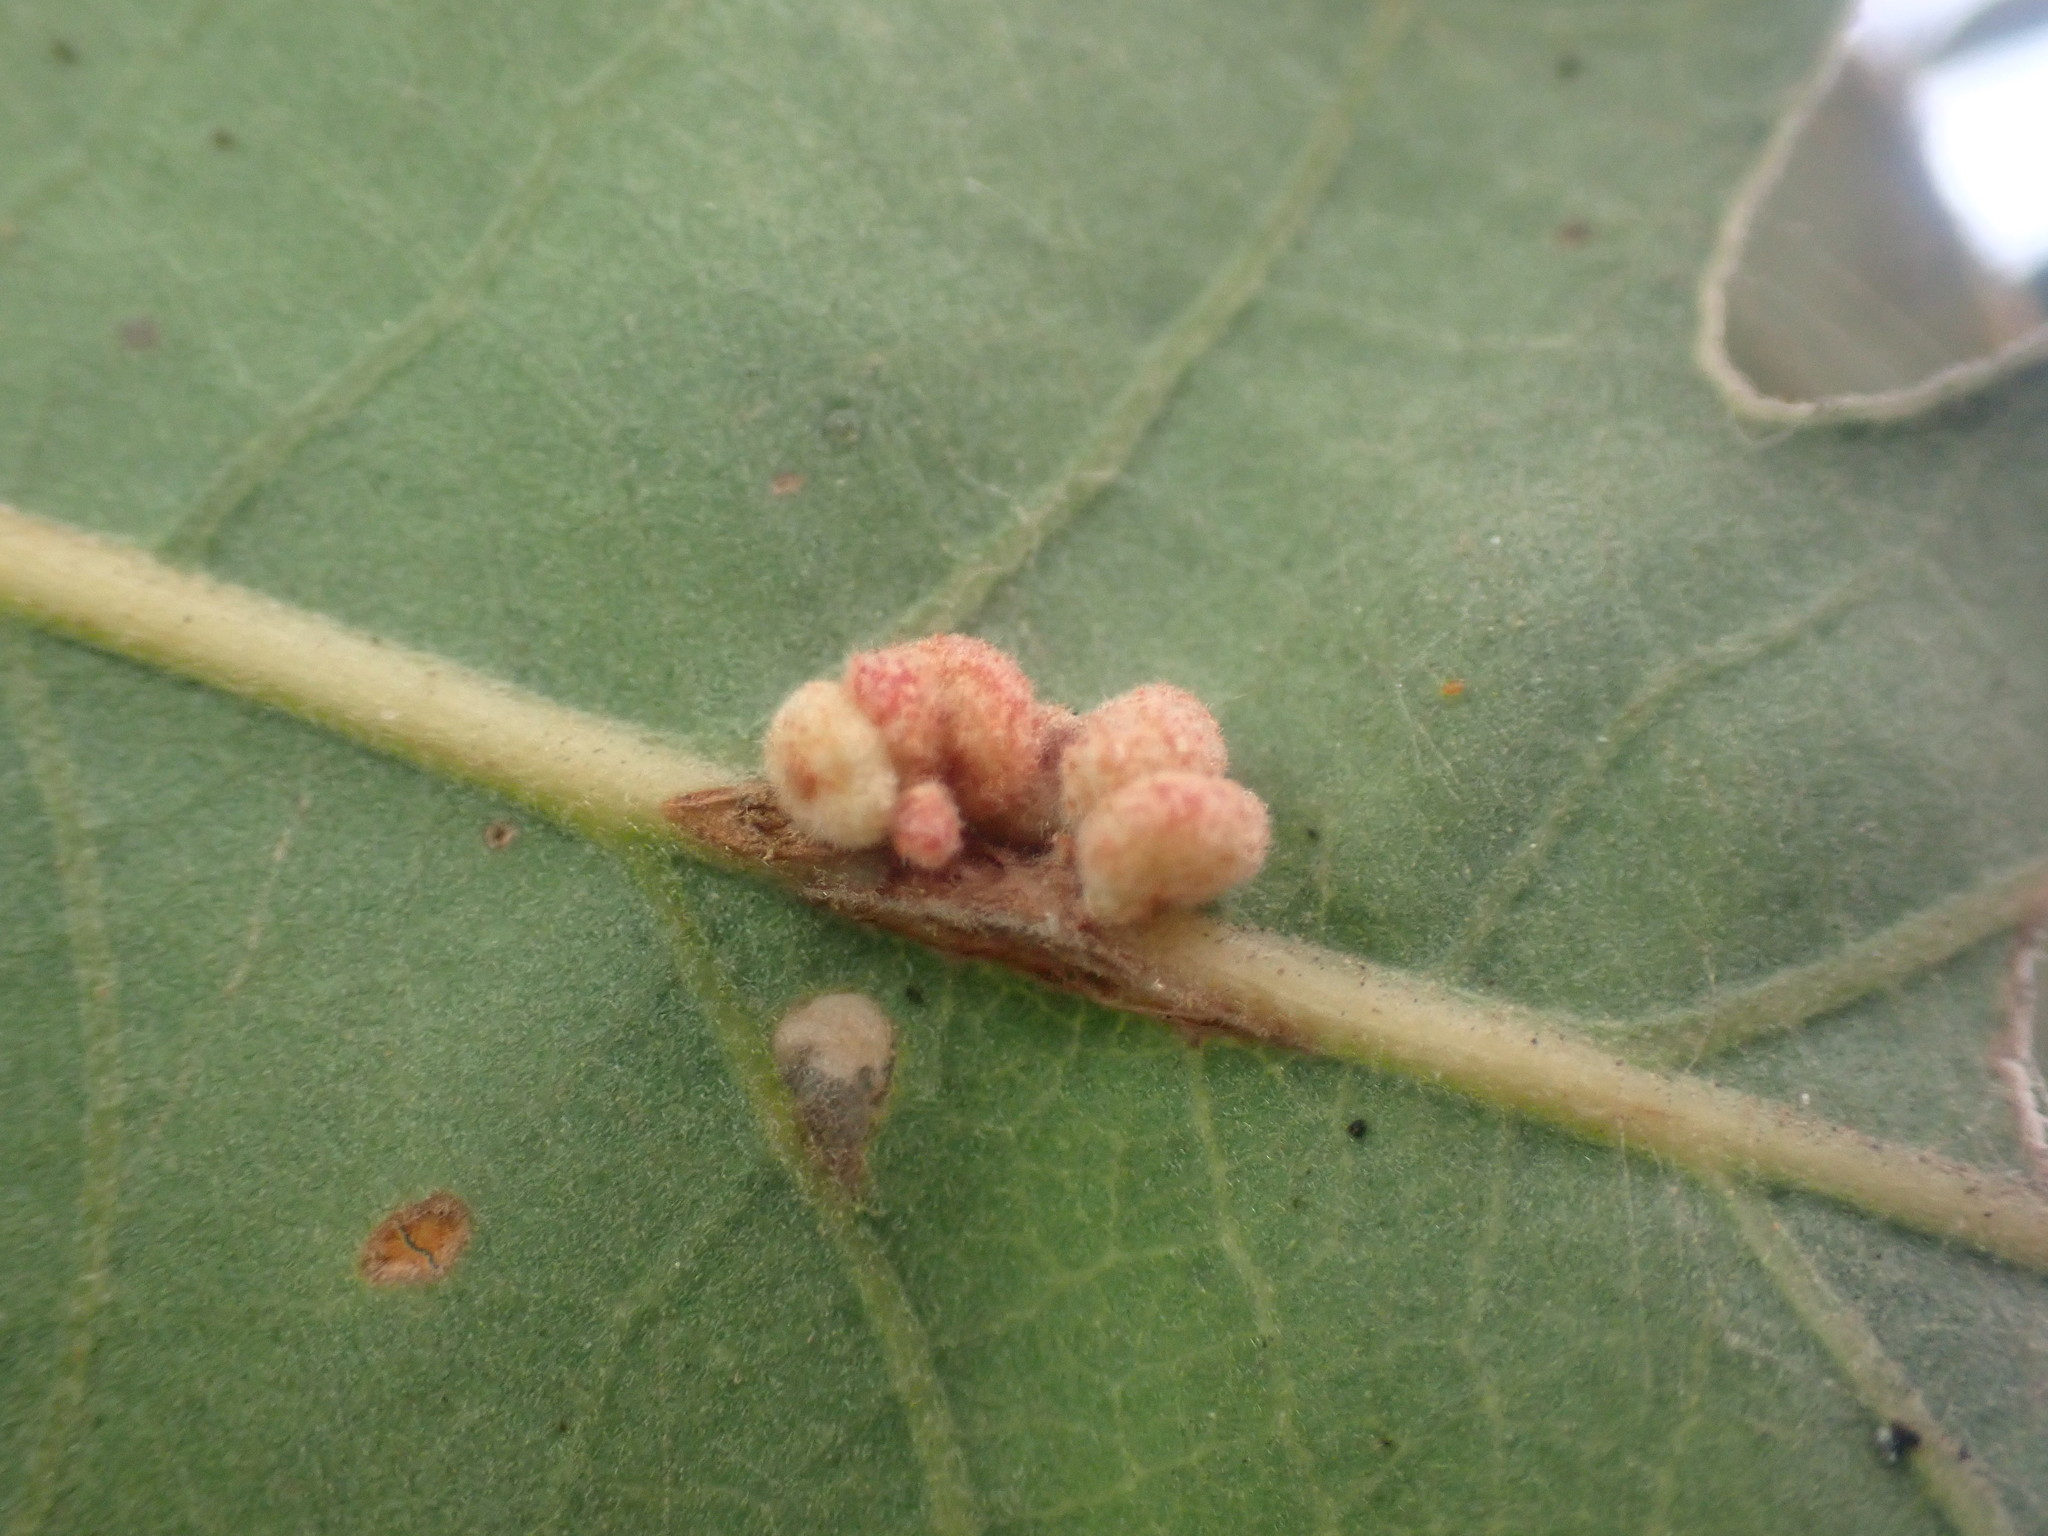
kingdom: Animalia
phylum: Arthropoda
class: Insecta
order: Hymenoptera
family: Cynipidae
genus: Andricus
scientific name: Andricus
